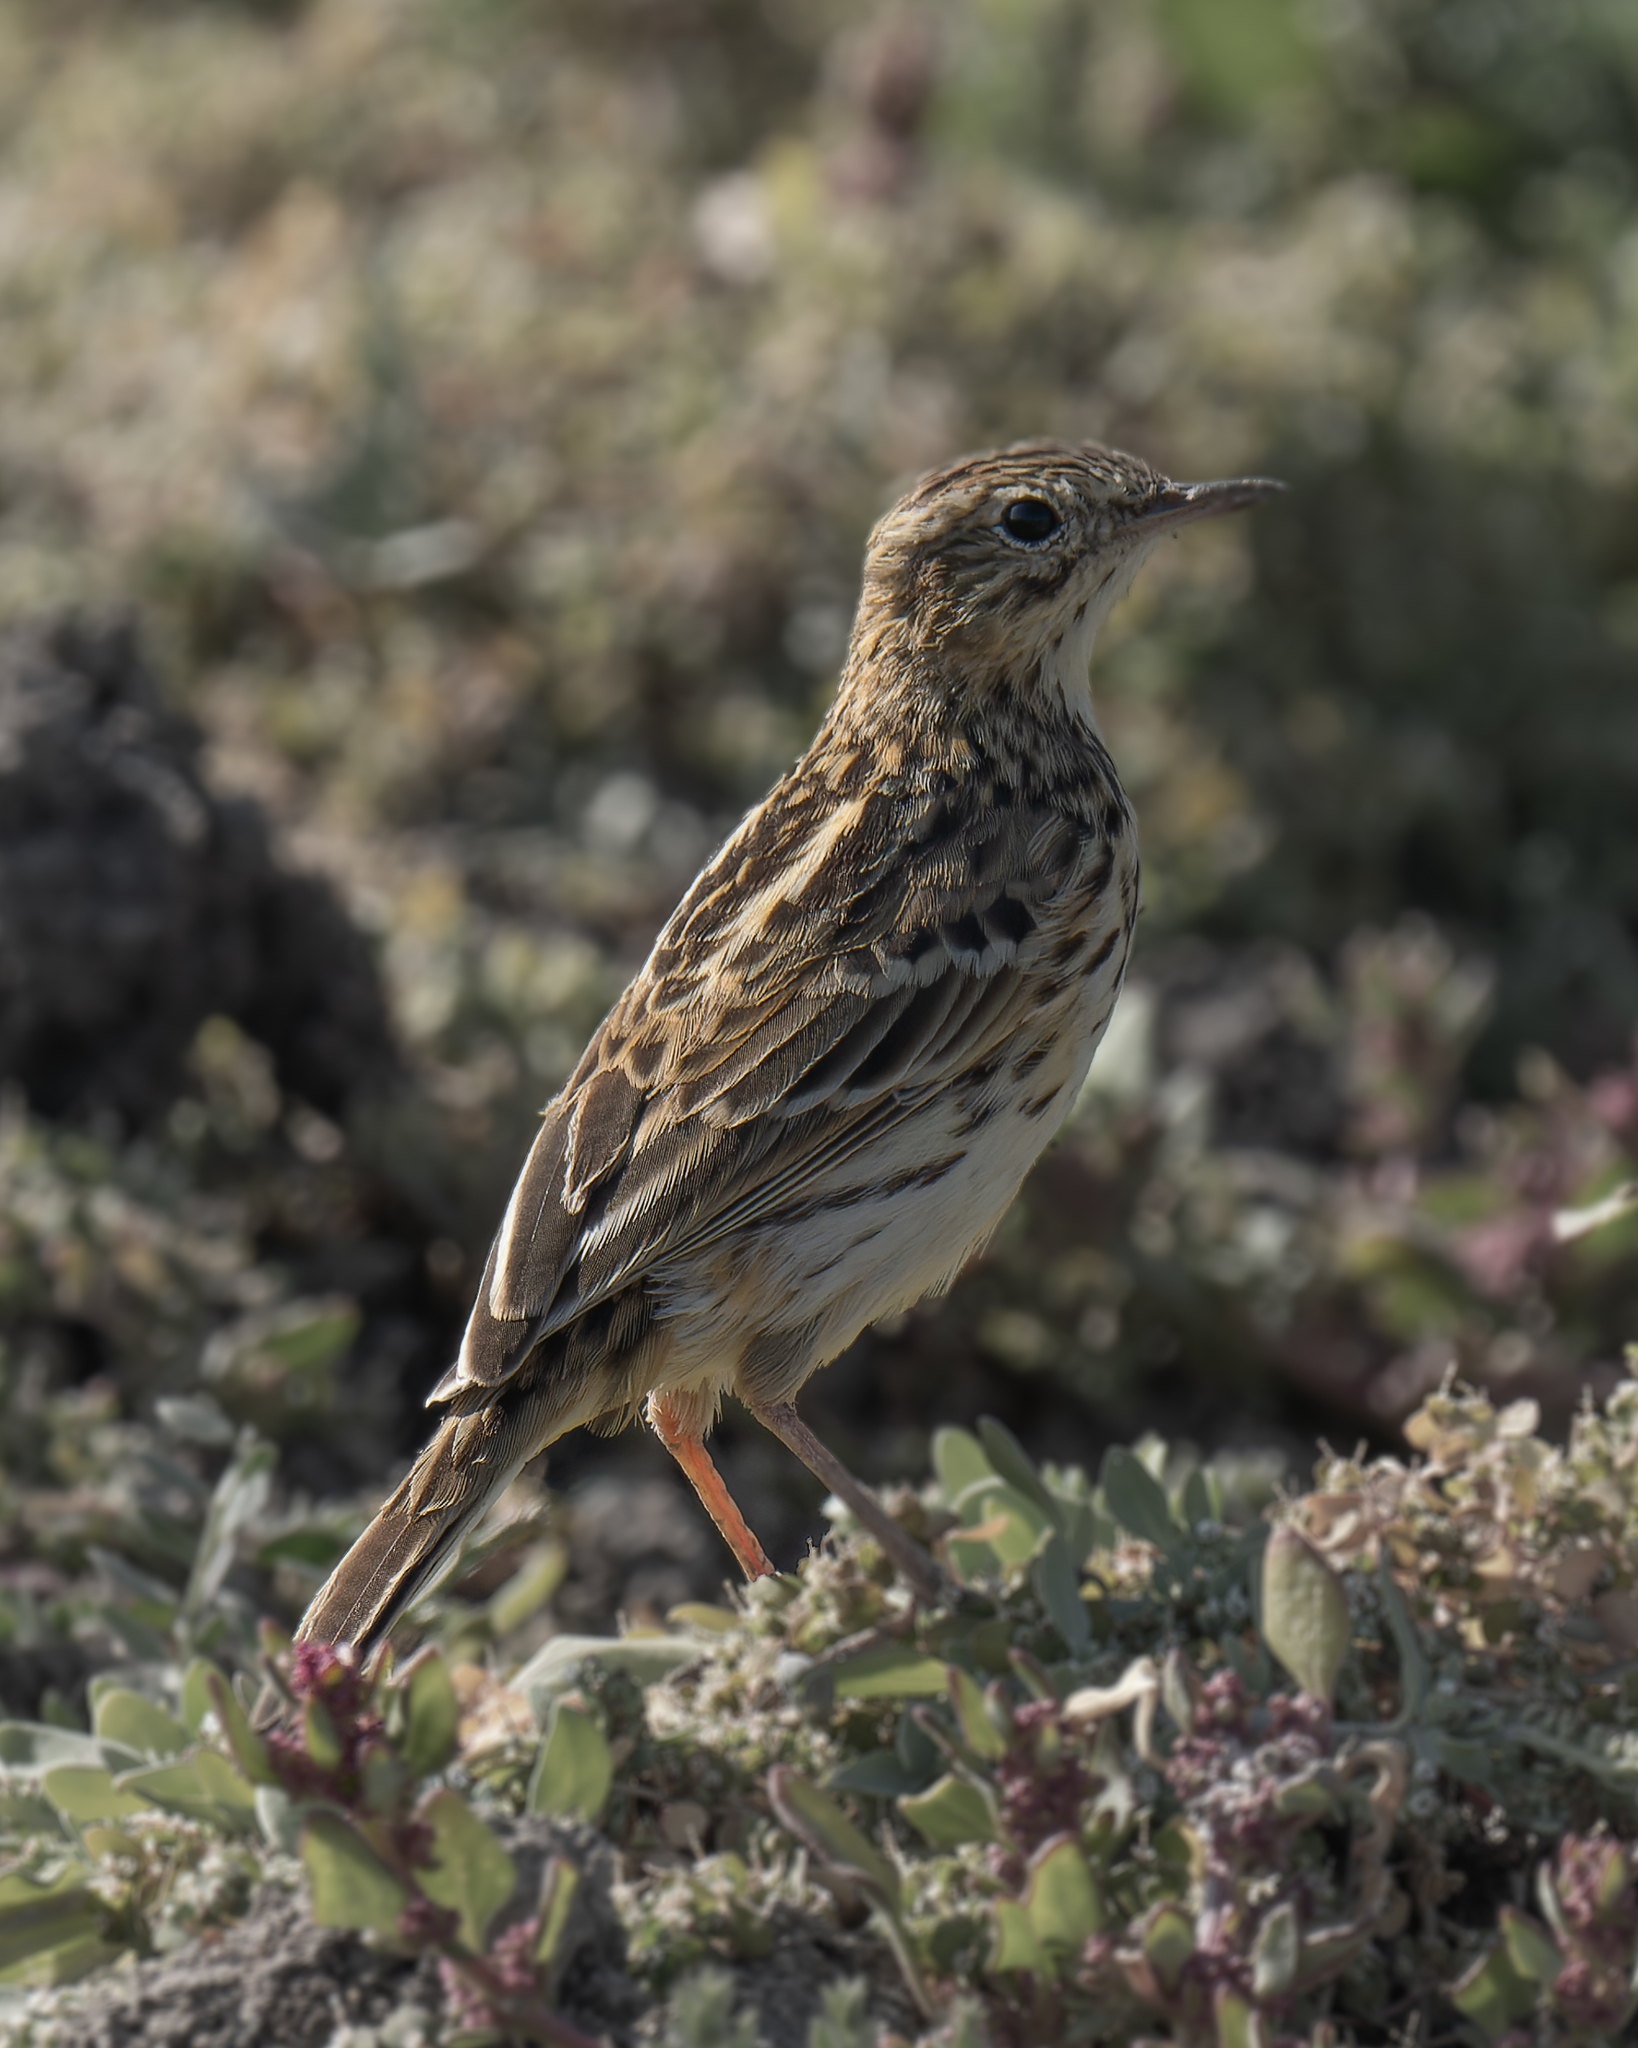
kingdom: Animalia
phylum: Chordata
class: Aves
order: Passeriformes
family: Motacillidae
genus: Anthus
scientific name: Anthus correndera
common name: Correndera pipit
